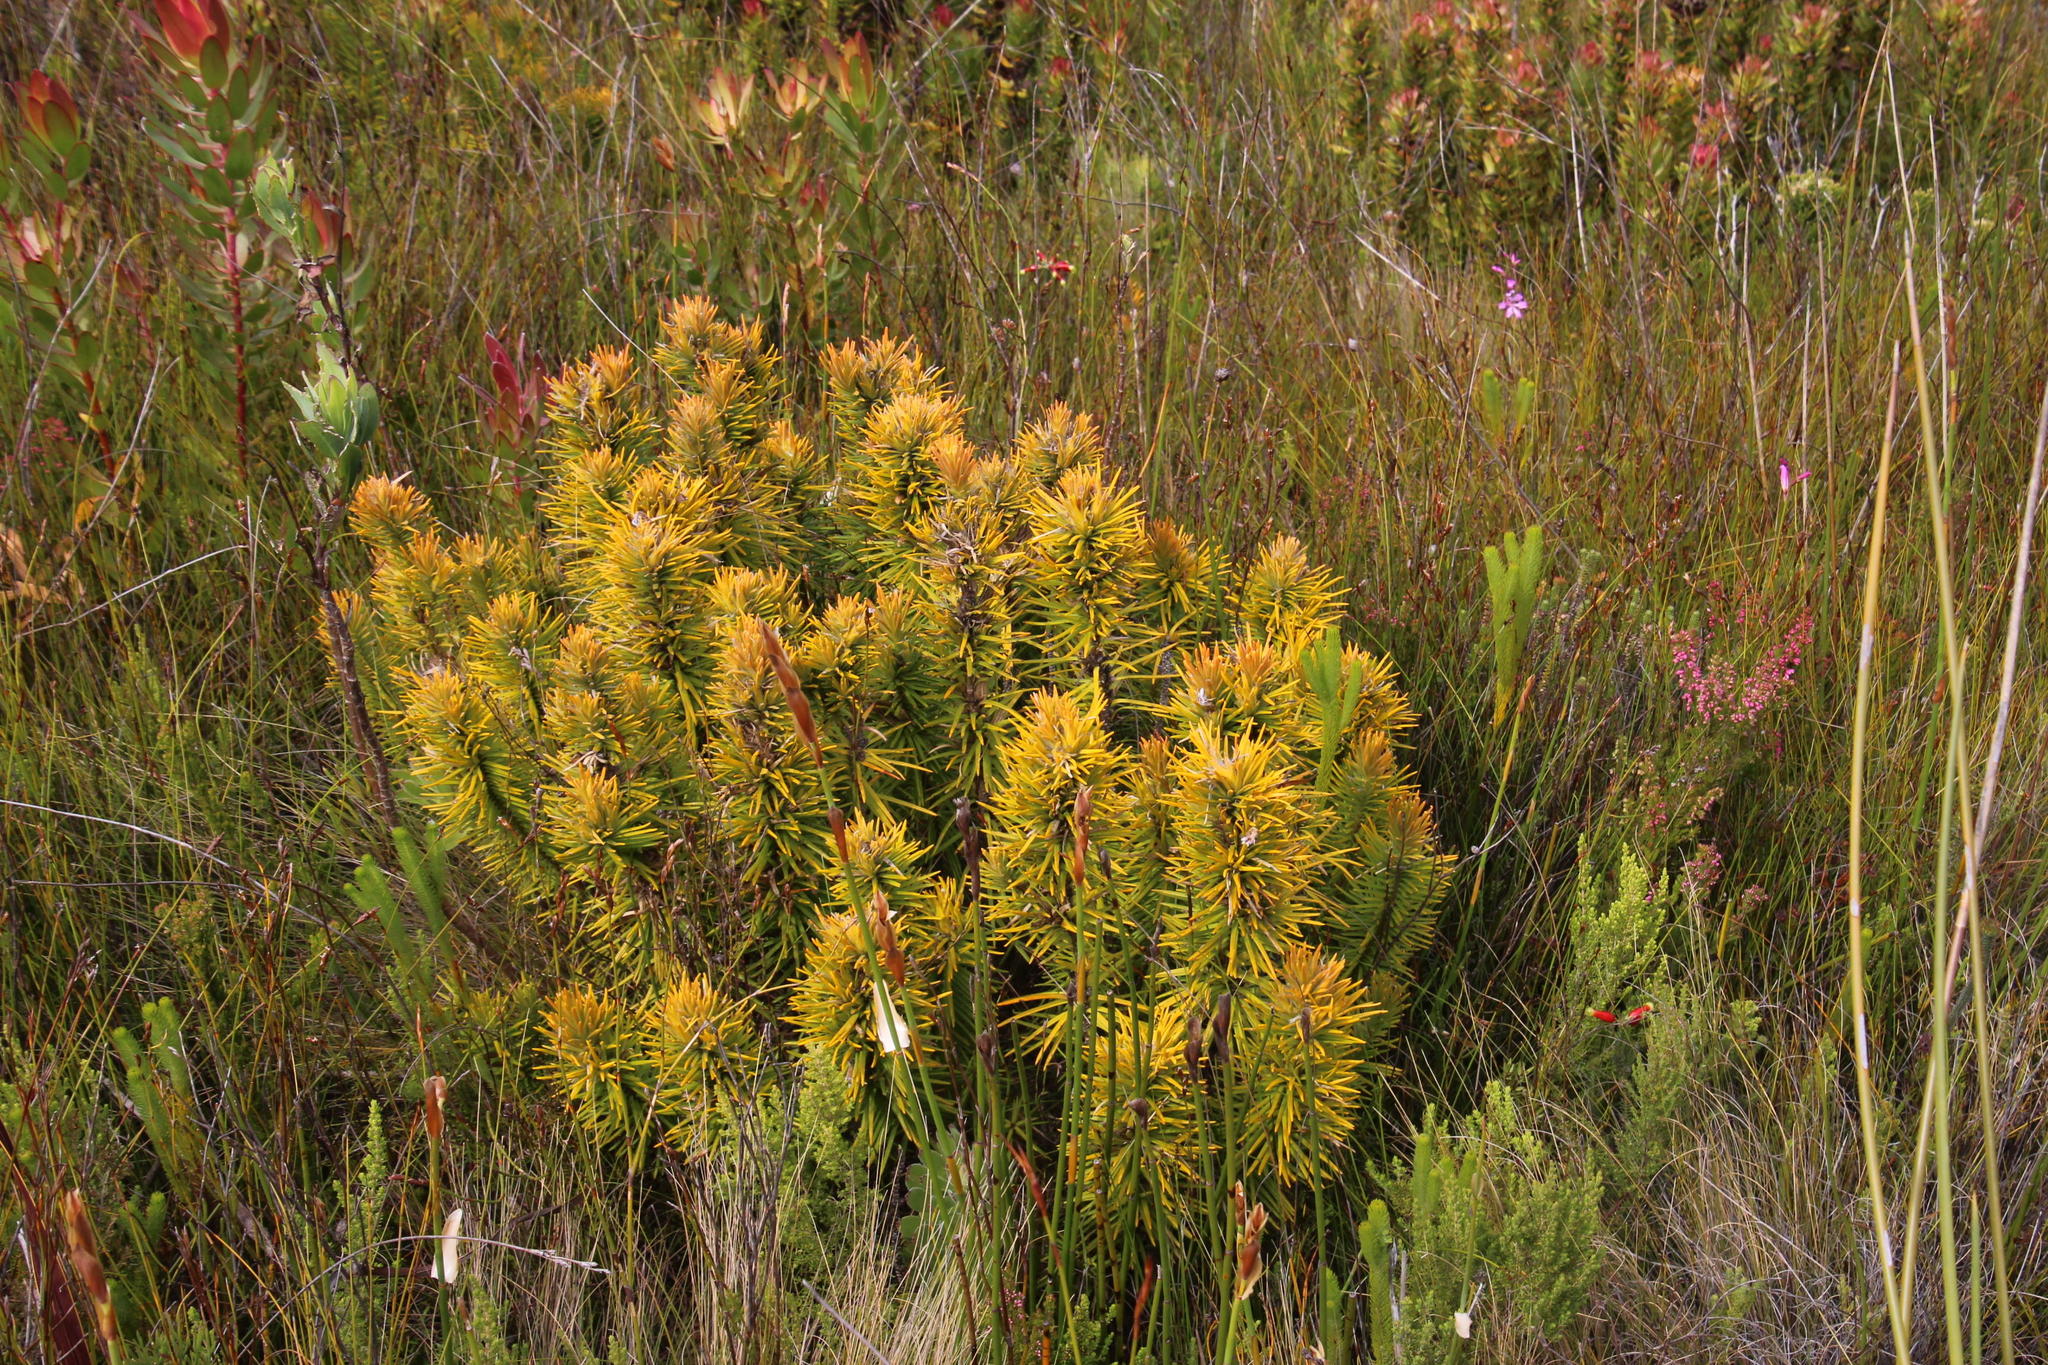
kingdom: Plantae
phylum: Tracheophyta
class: Magnoliopsida
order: Lamiales
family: Stilbaceae
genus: Retzia
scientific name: Retzia capensis
